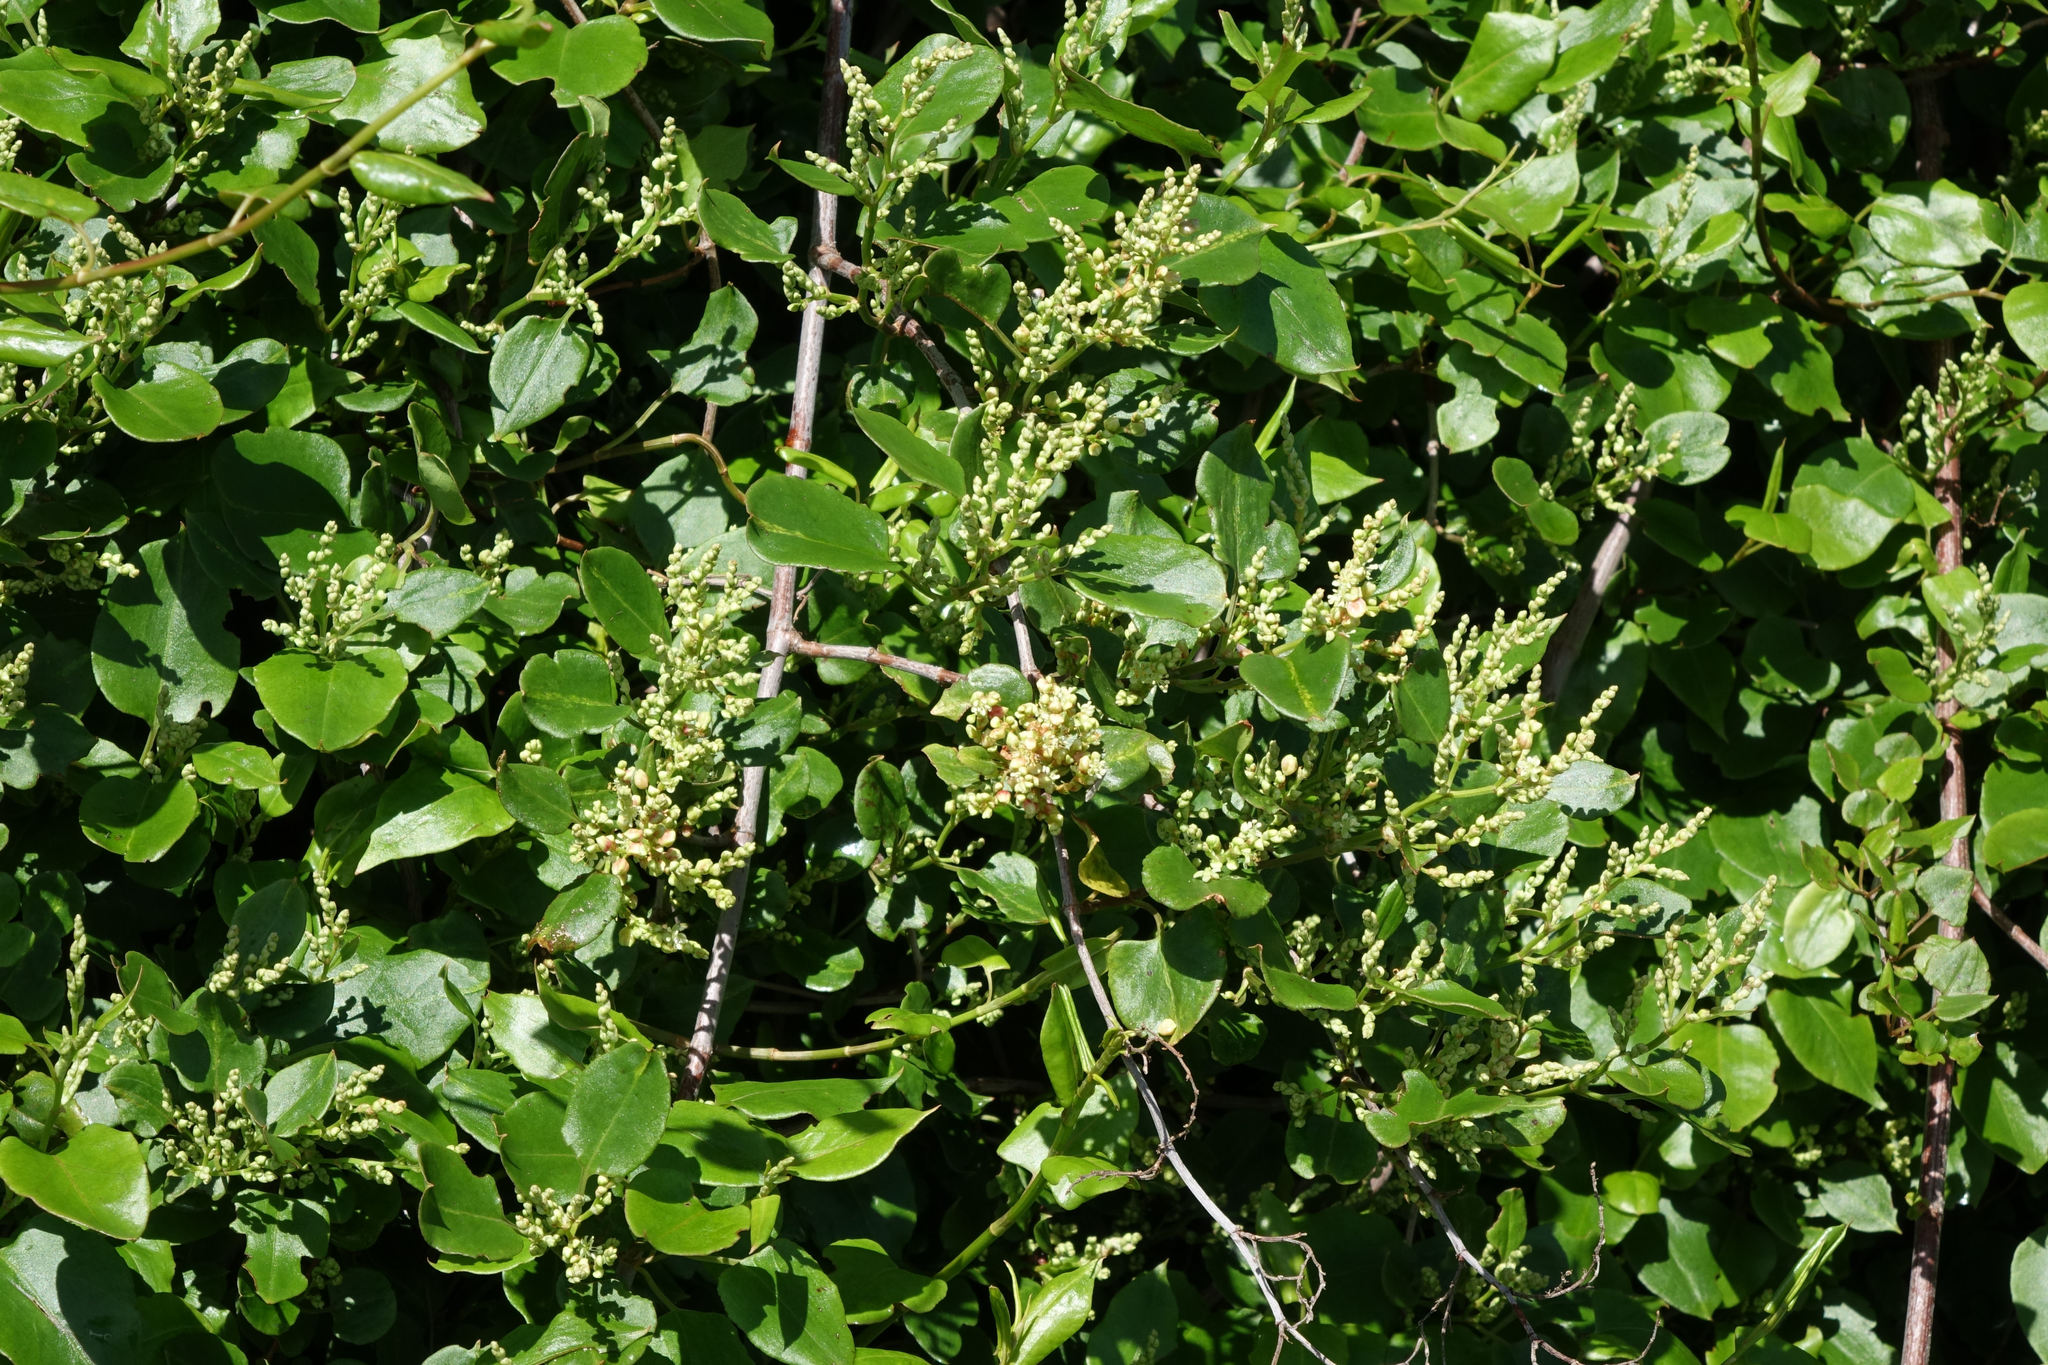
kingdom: Plantae
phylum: Tracheophyta
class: Magnoliopsida
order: Caryophyllales
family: Polygonaceae
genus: Muehlenbeckia
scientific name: Muehlenbeckia australis
